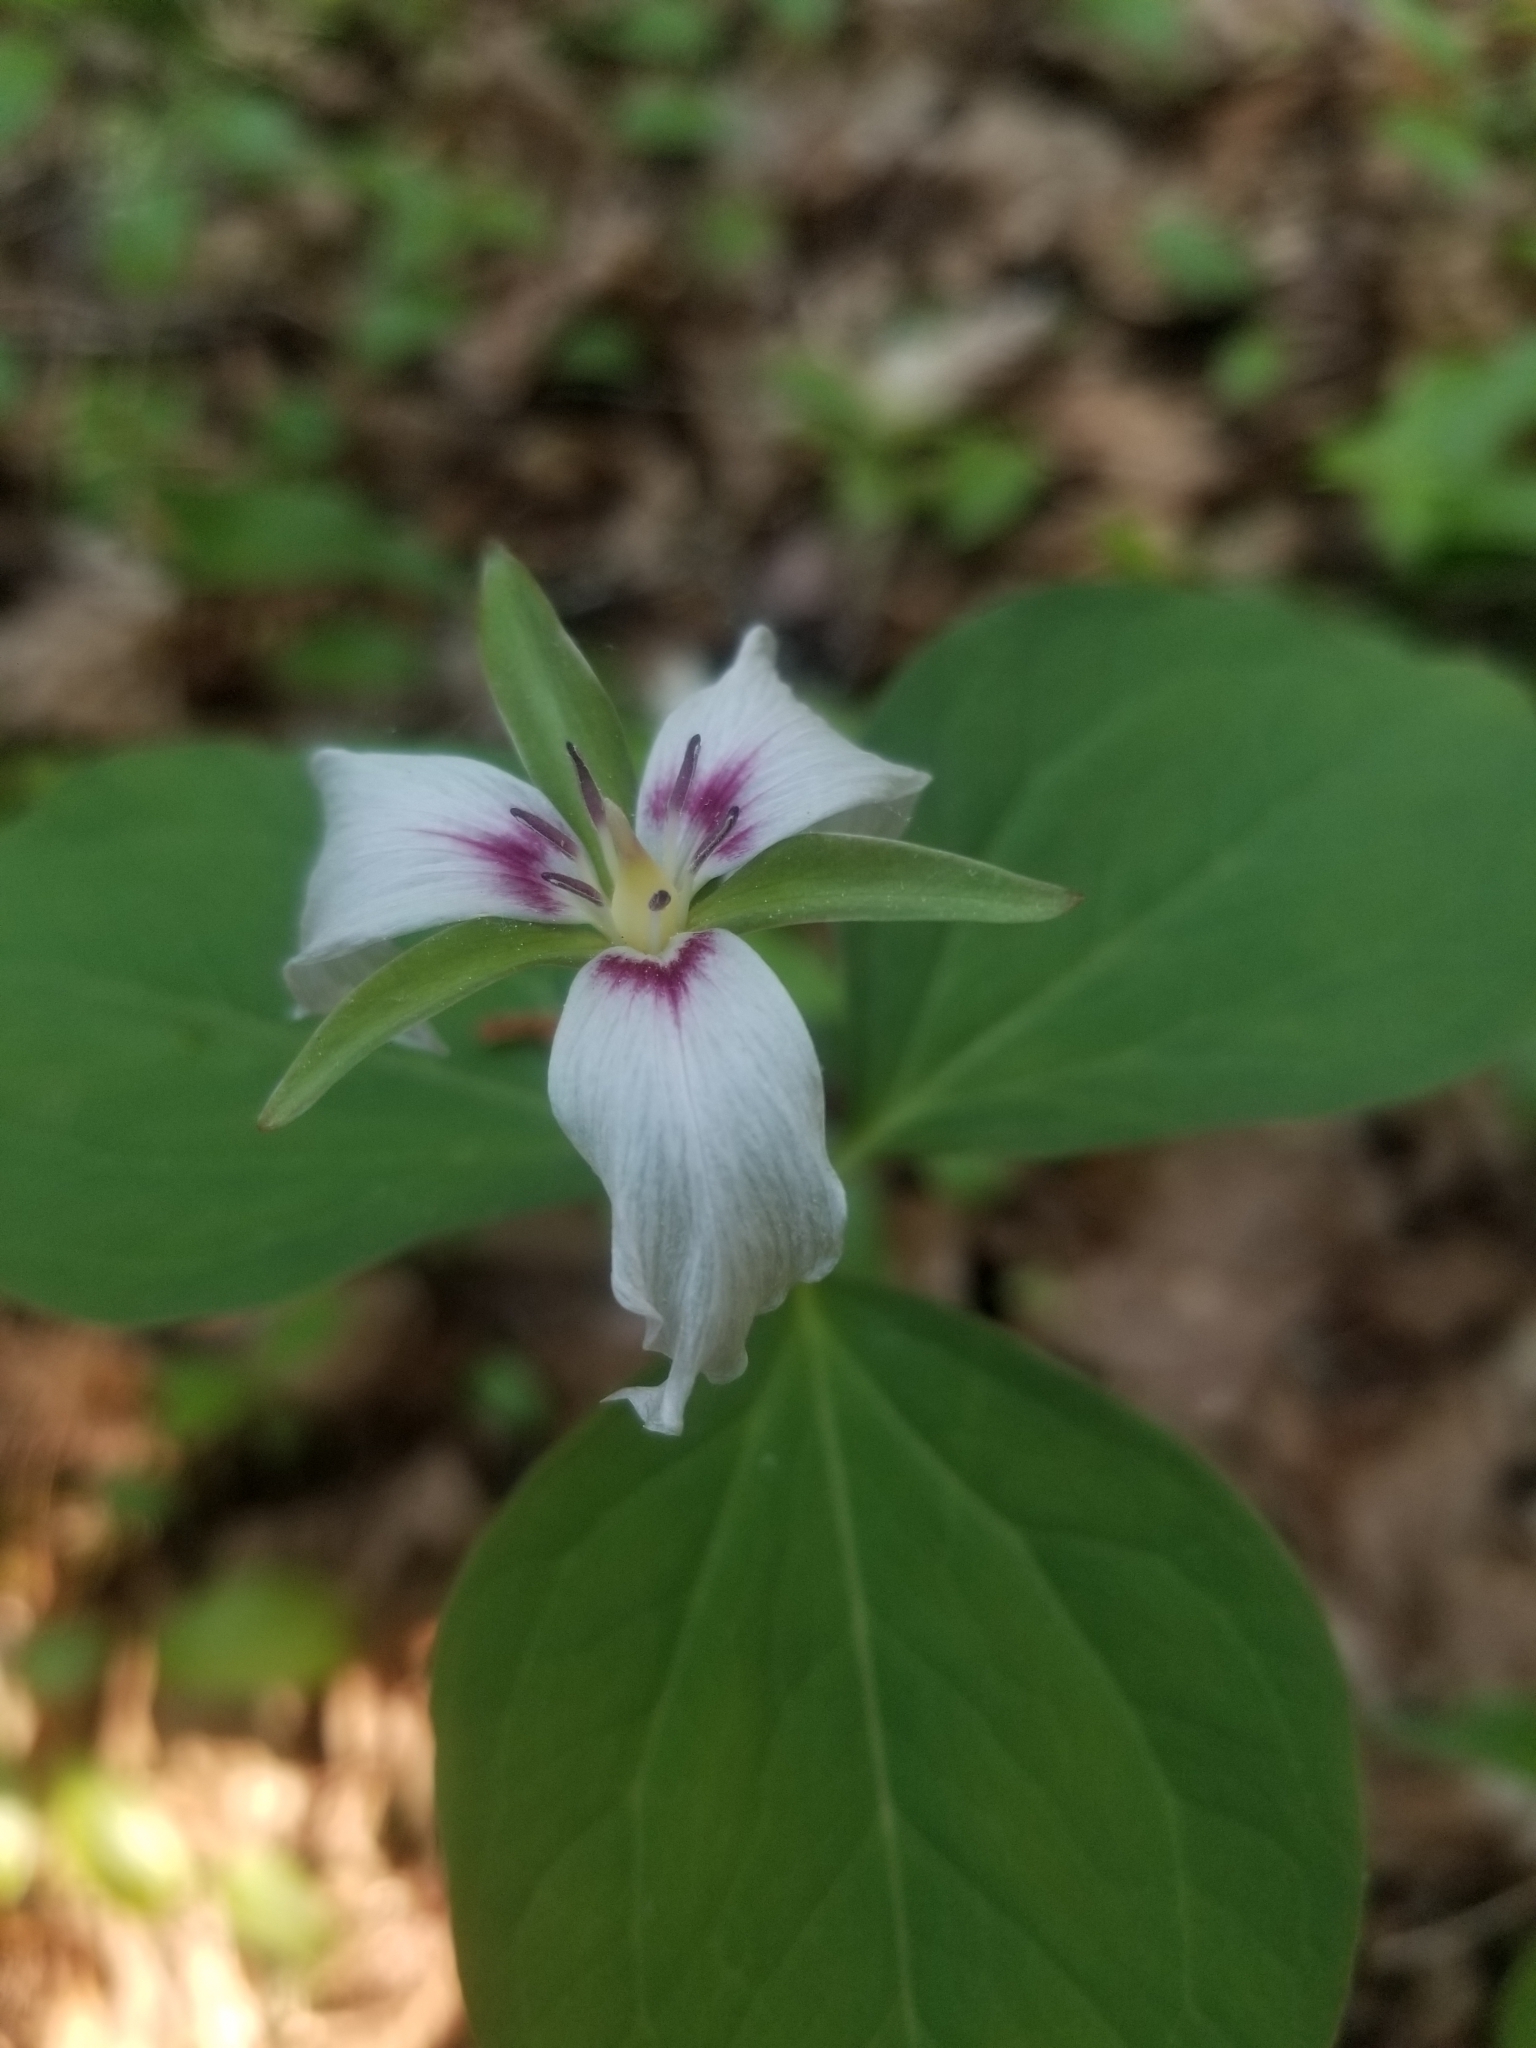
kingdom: Plantae
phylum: Tracheophyta
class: Liliopsida
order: Liliales
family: Melanthiaceae
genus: Trillium
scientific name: Trillium undulatum
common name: Paint trillium
